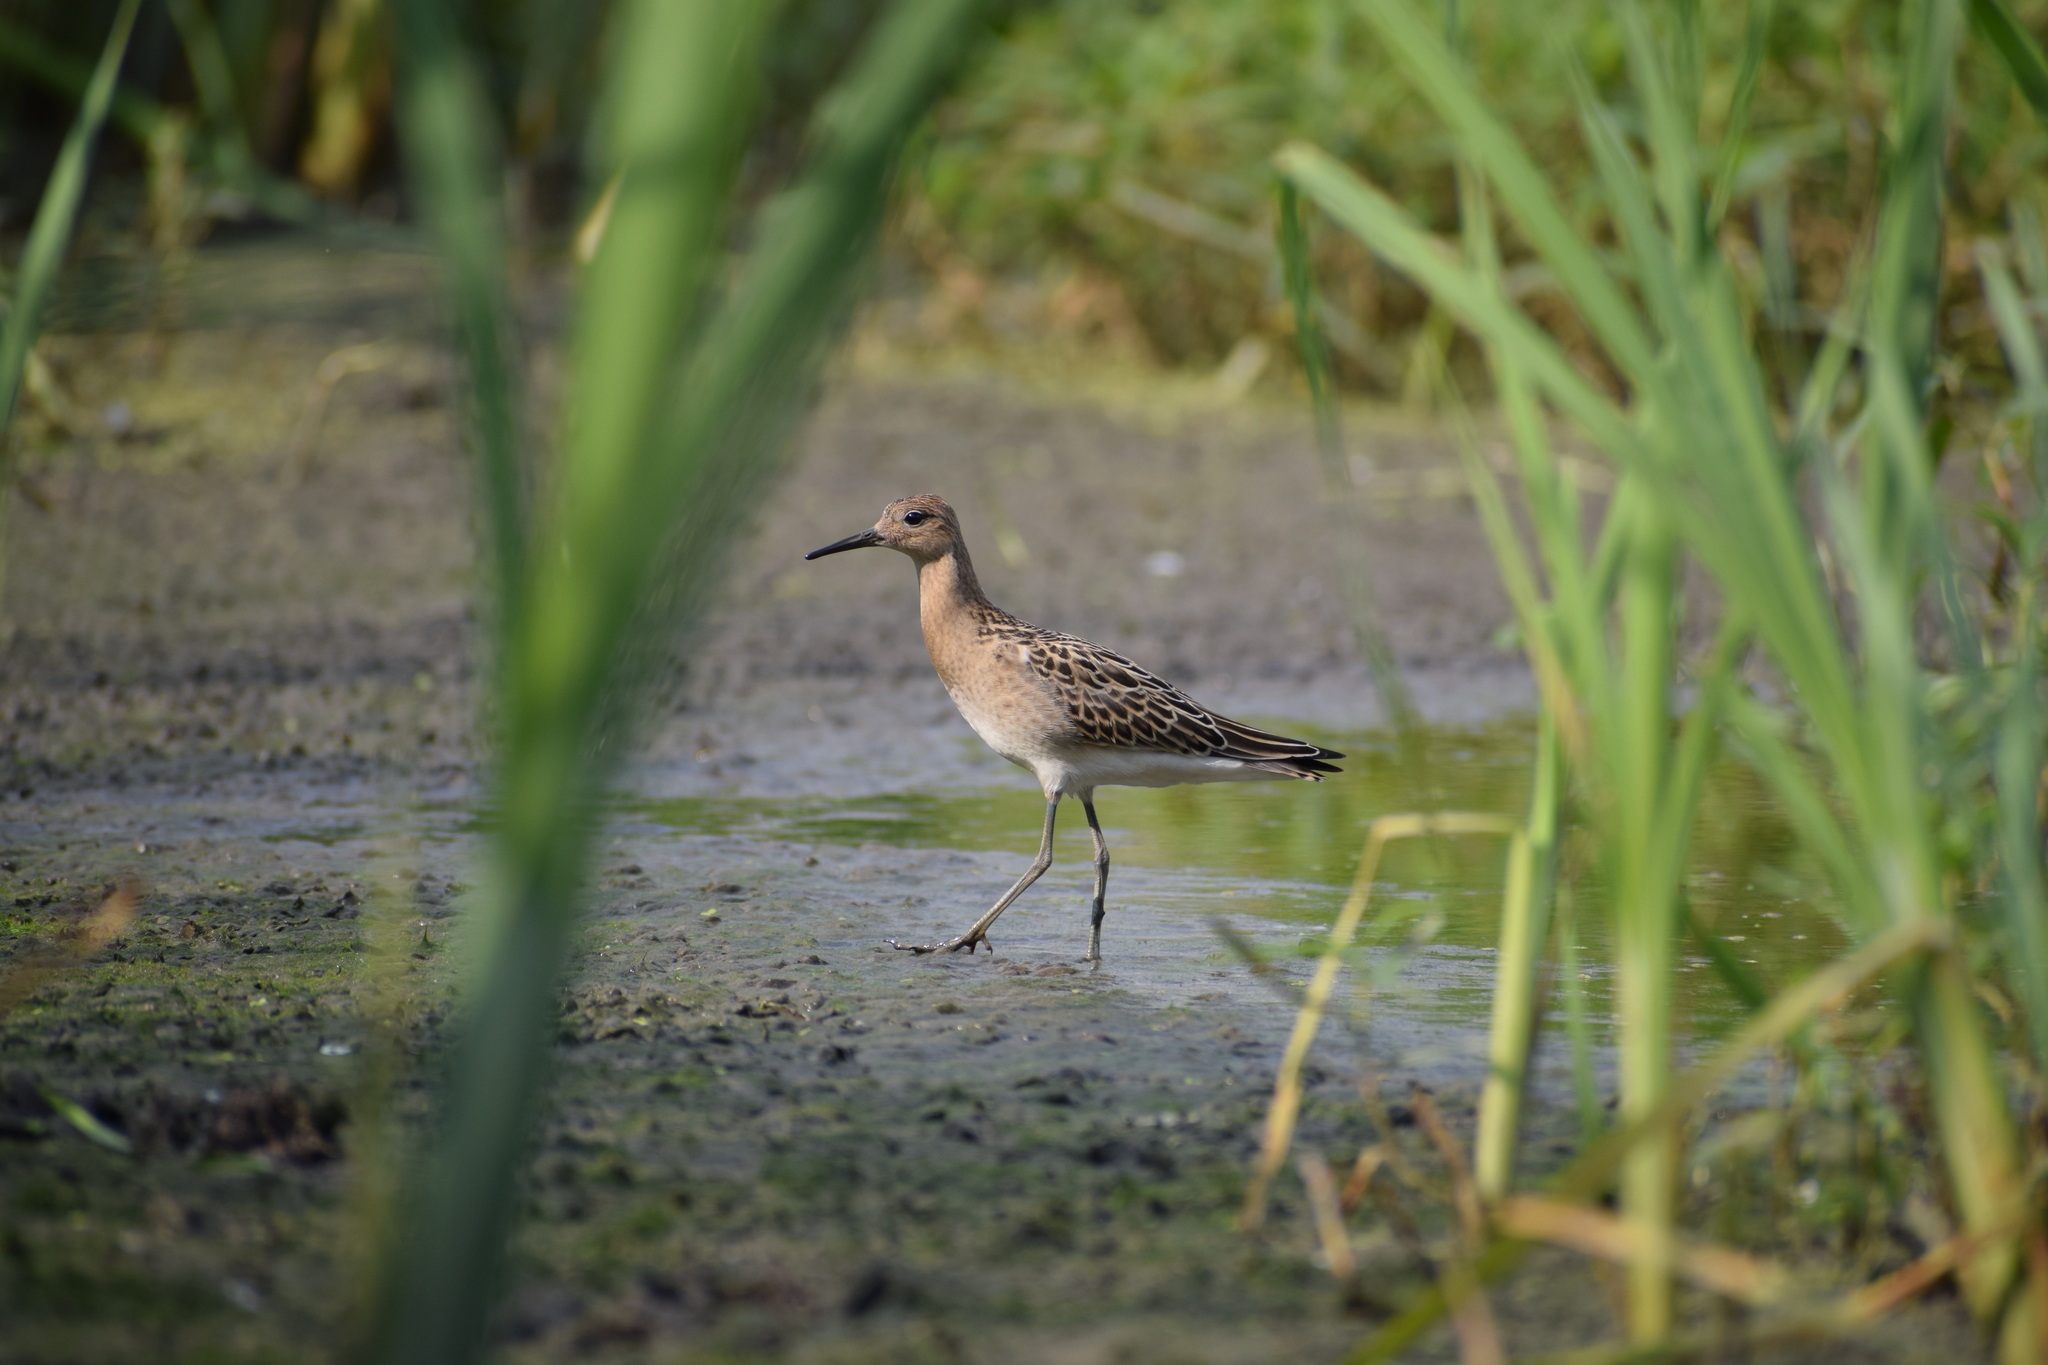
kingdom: Animalia
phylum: Chordata
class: Aves
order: Charadriiformes
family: Scolopacidae
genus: Calidris
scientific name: Calidris pugnax
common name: Ruff
